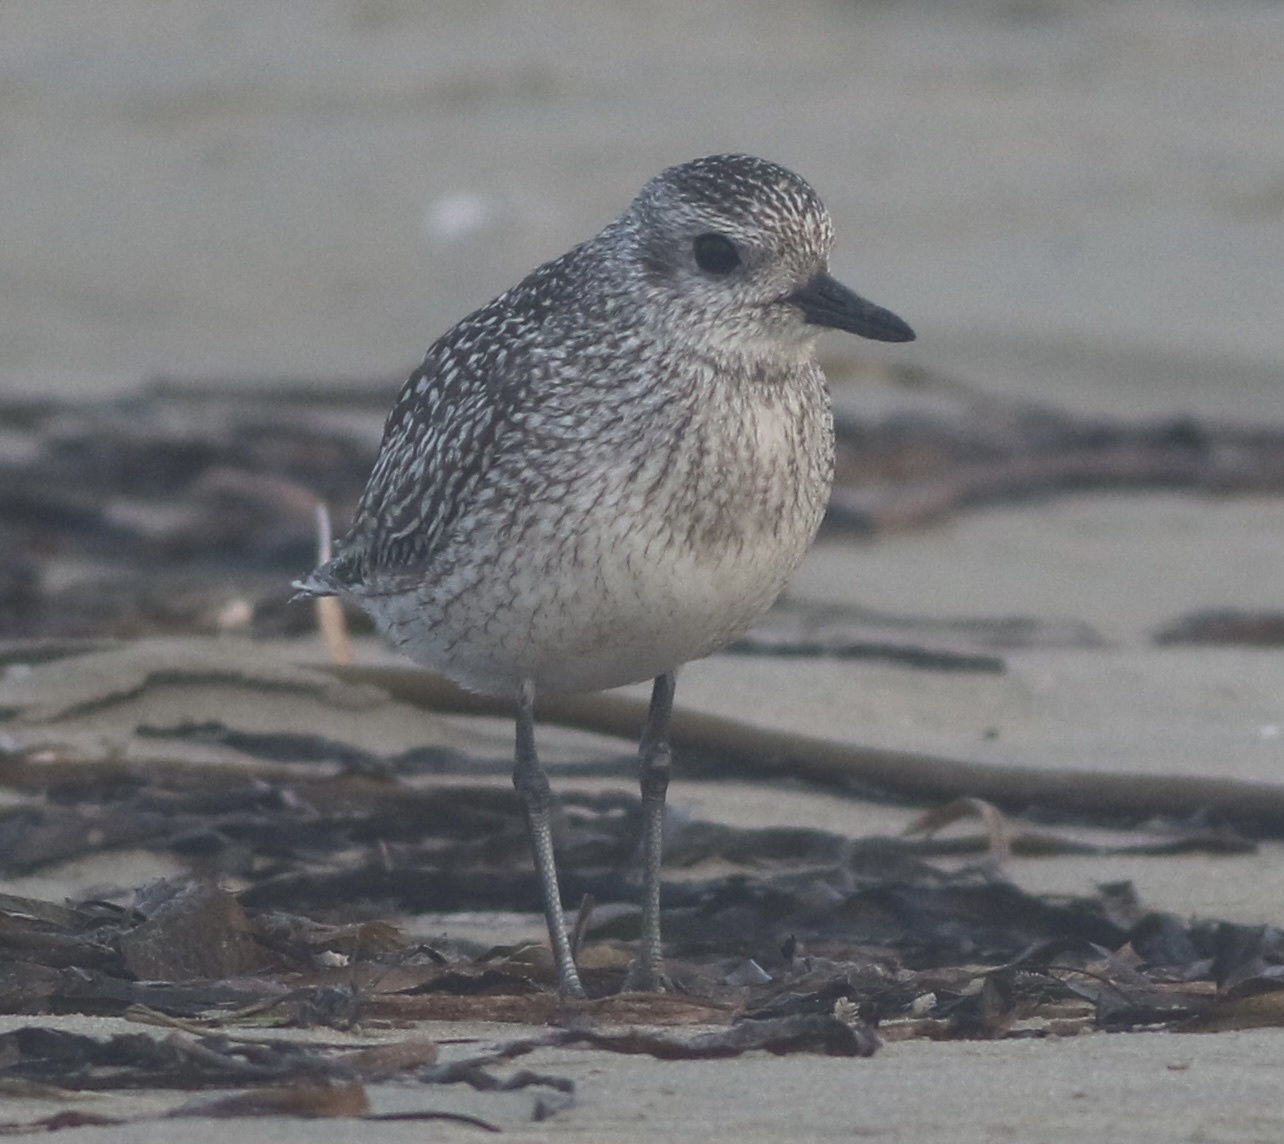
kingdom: Animalia
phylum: Chordata
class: Aves
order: Charadriiformes
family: Charadriidae
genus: Pluvialis
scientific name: Pluvialis squatarola
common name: Grey plover
